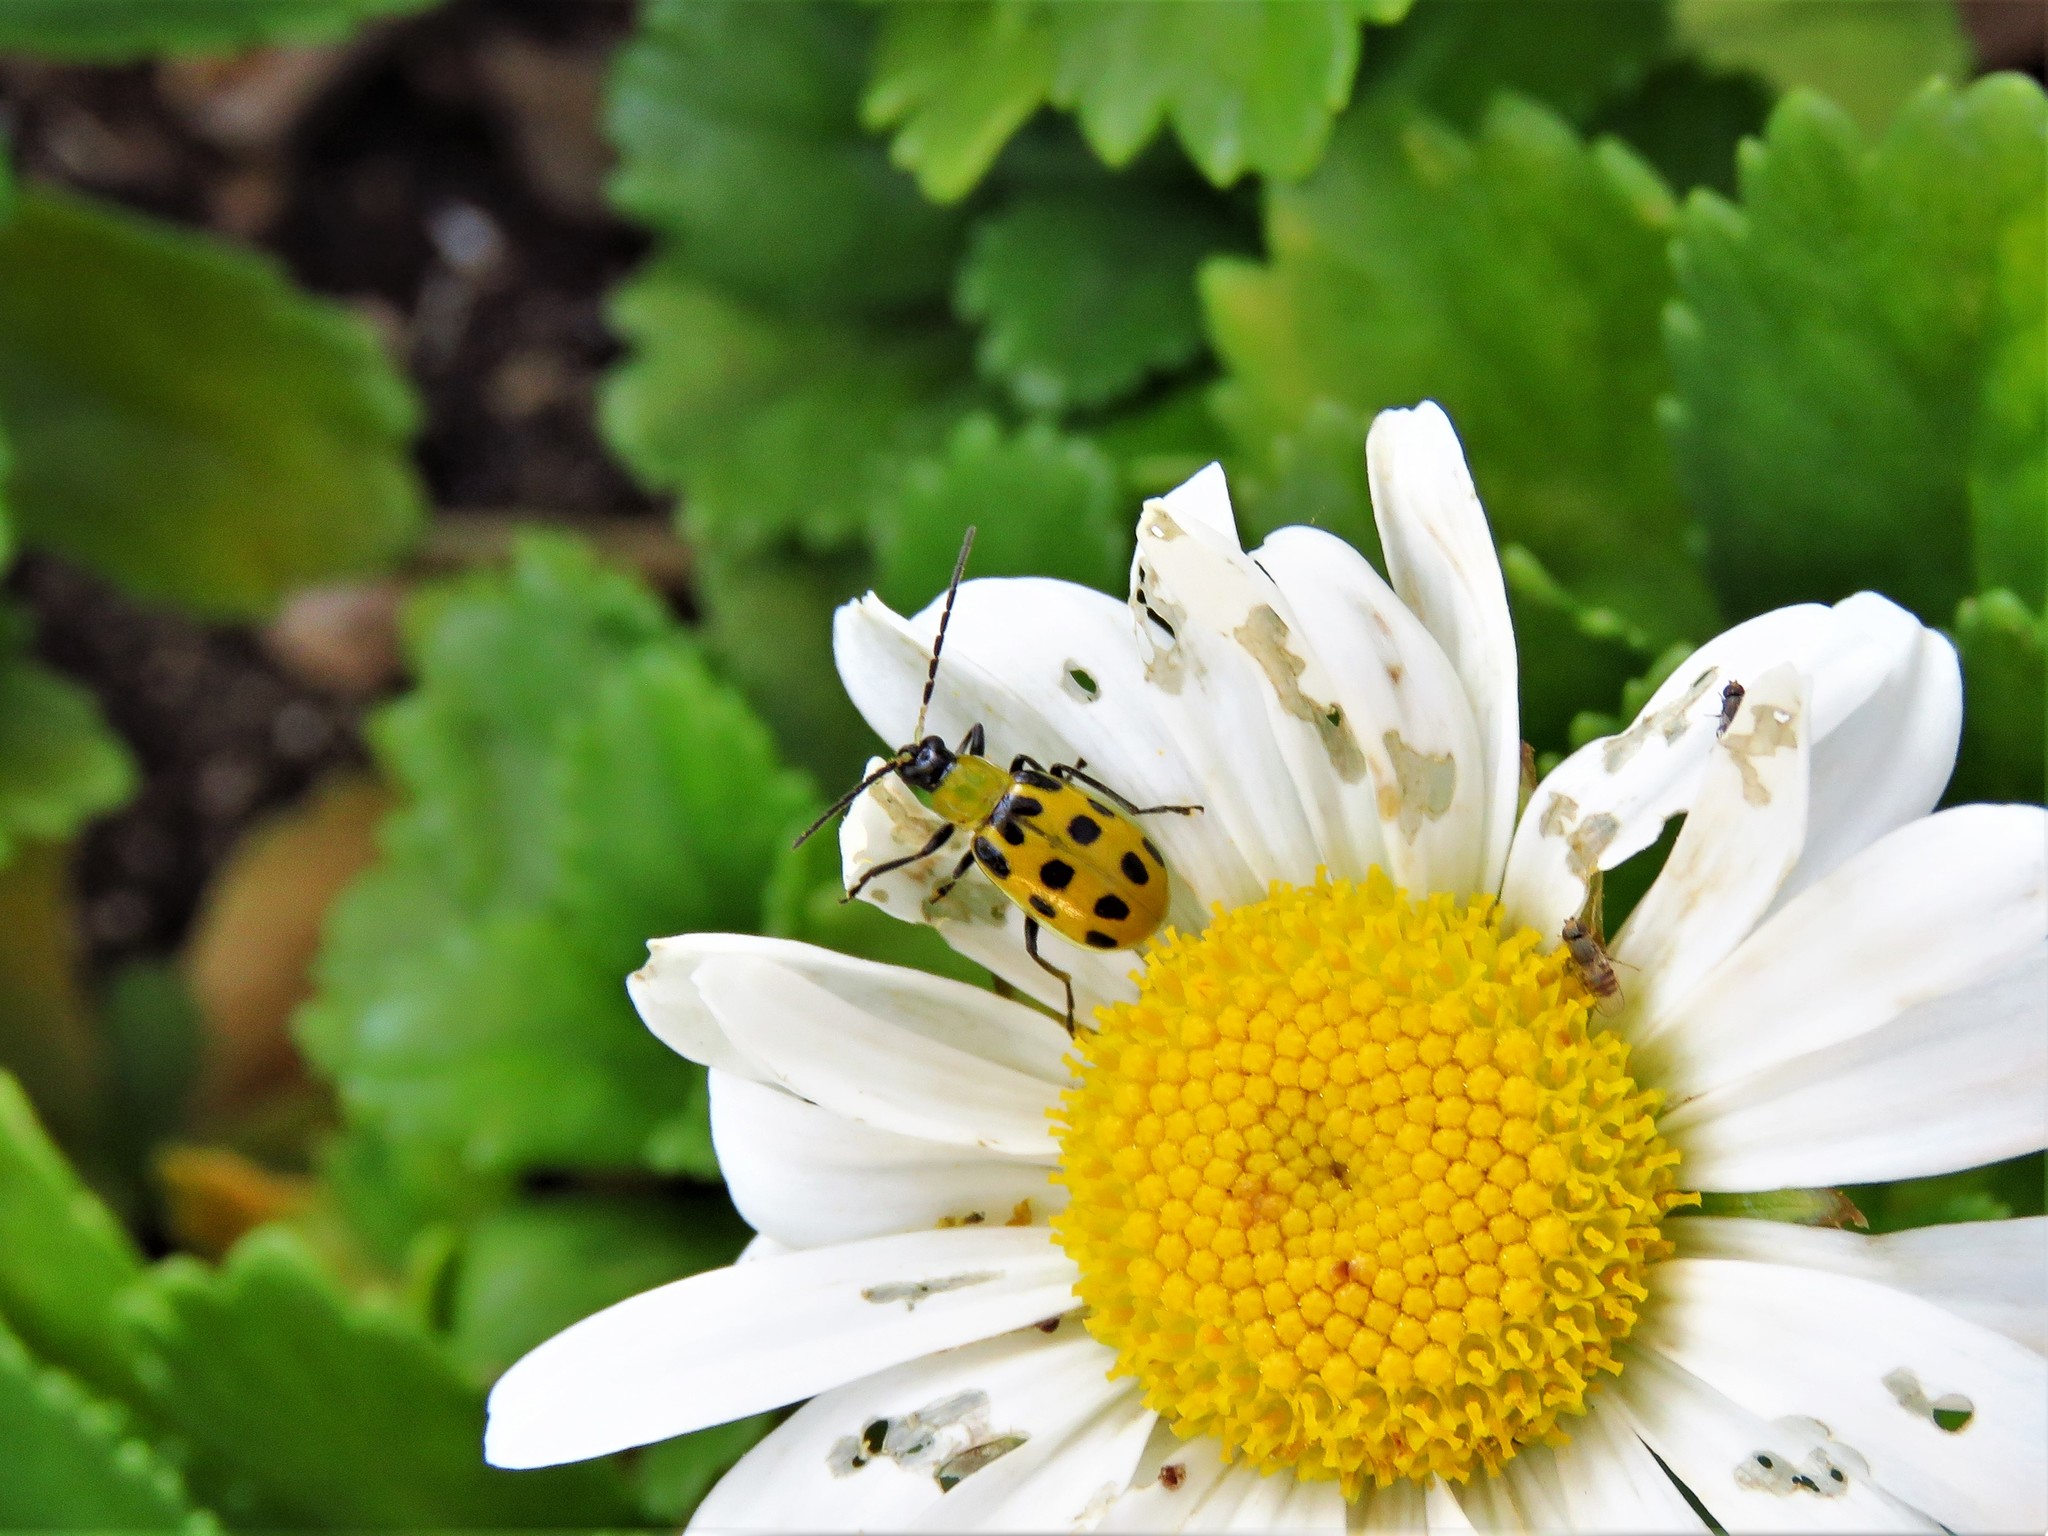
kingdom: Animalia
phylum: Arthropoda
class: Insecta
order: Coleoptera
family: Chrysomelidae
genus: Diabrotica
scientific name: Diabrotica undecimpunctata
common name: Spotted cucumber beetle
